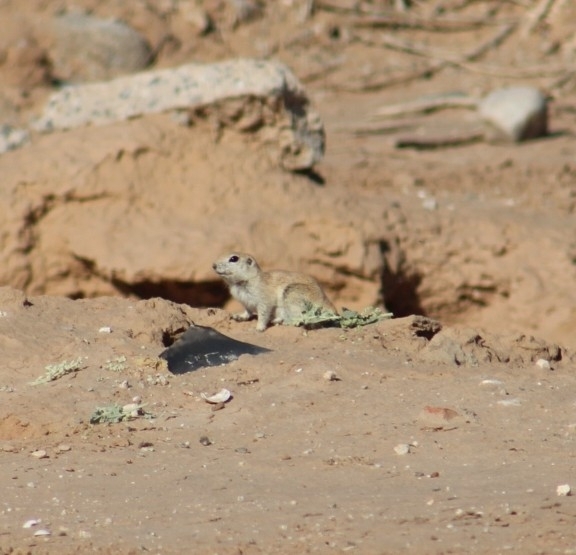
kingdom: Animalia
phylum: Chordata
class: Mammalia
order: Rodentia
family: Sciuridae
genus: Xerospermophilus
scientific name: Xerospermophilus tereticaudus
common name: Round-tailed ground squirrel
